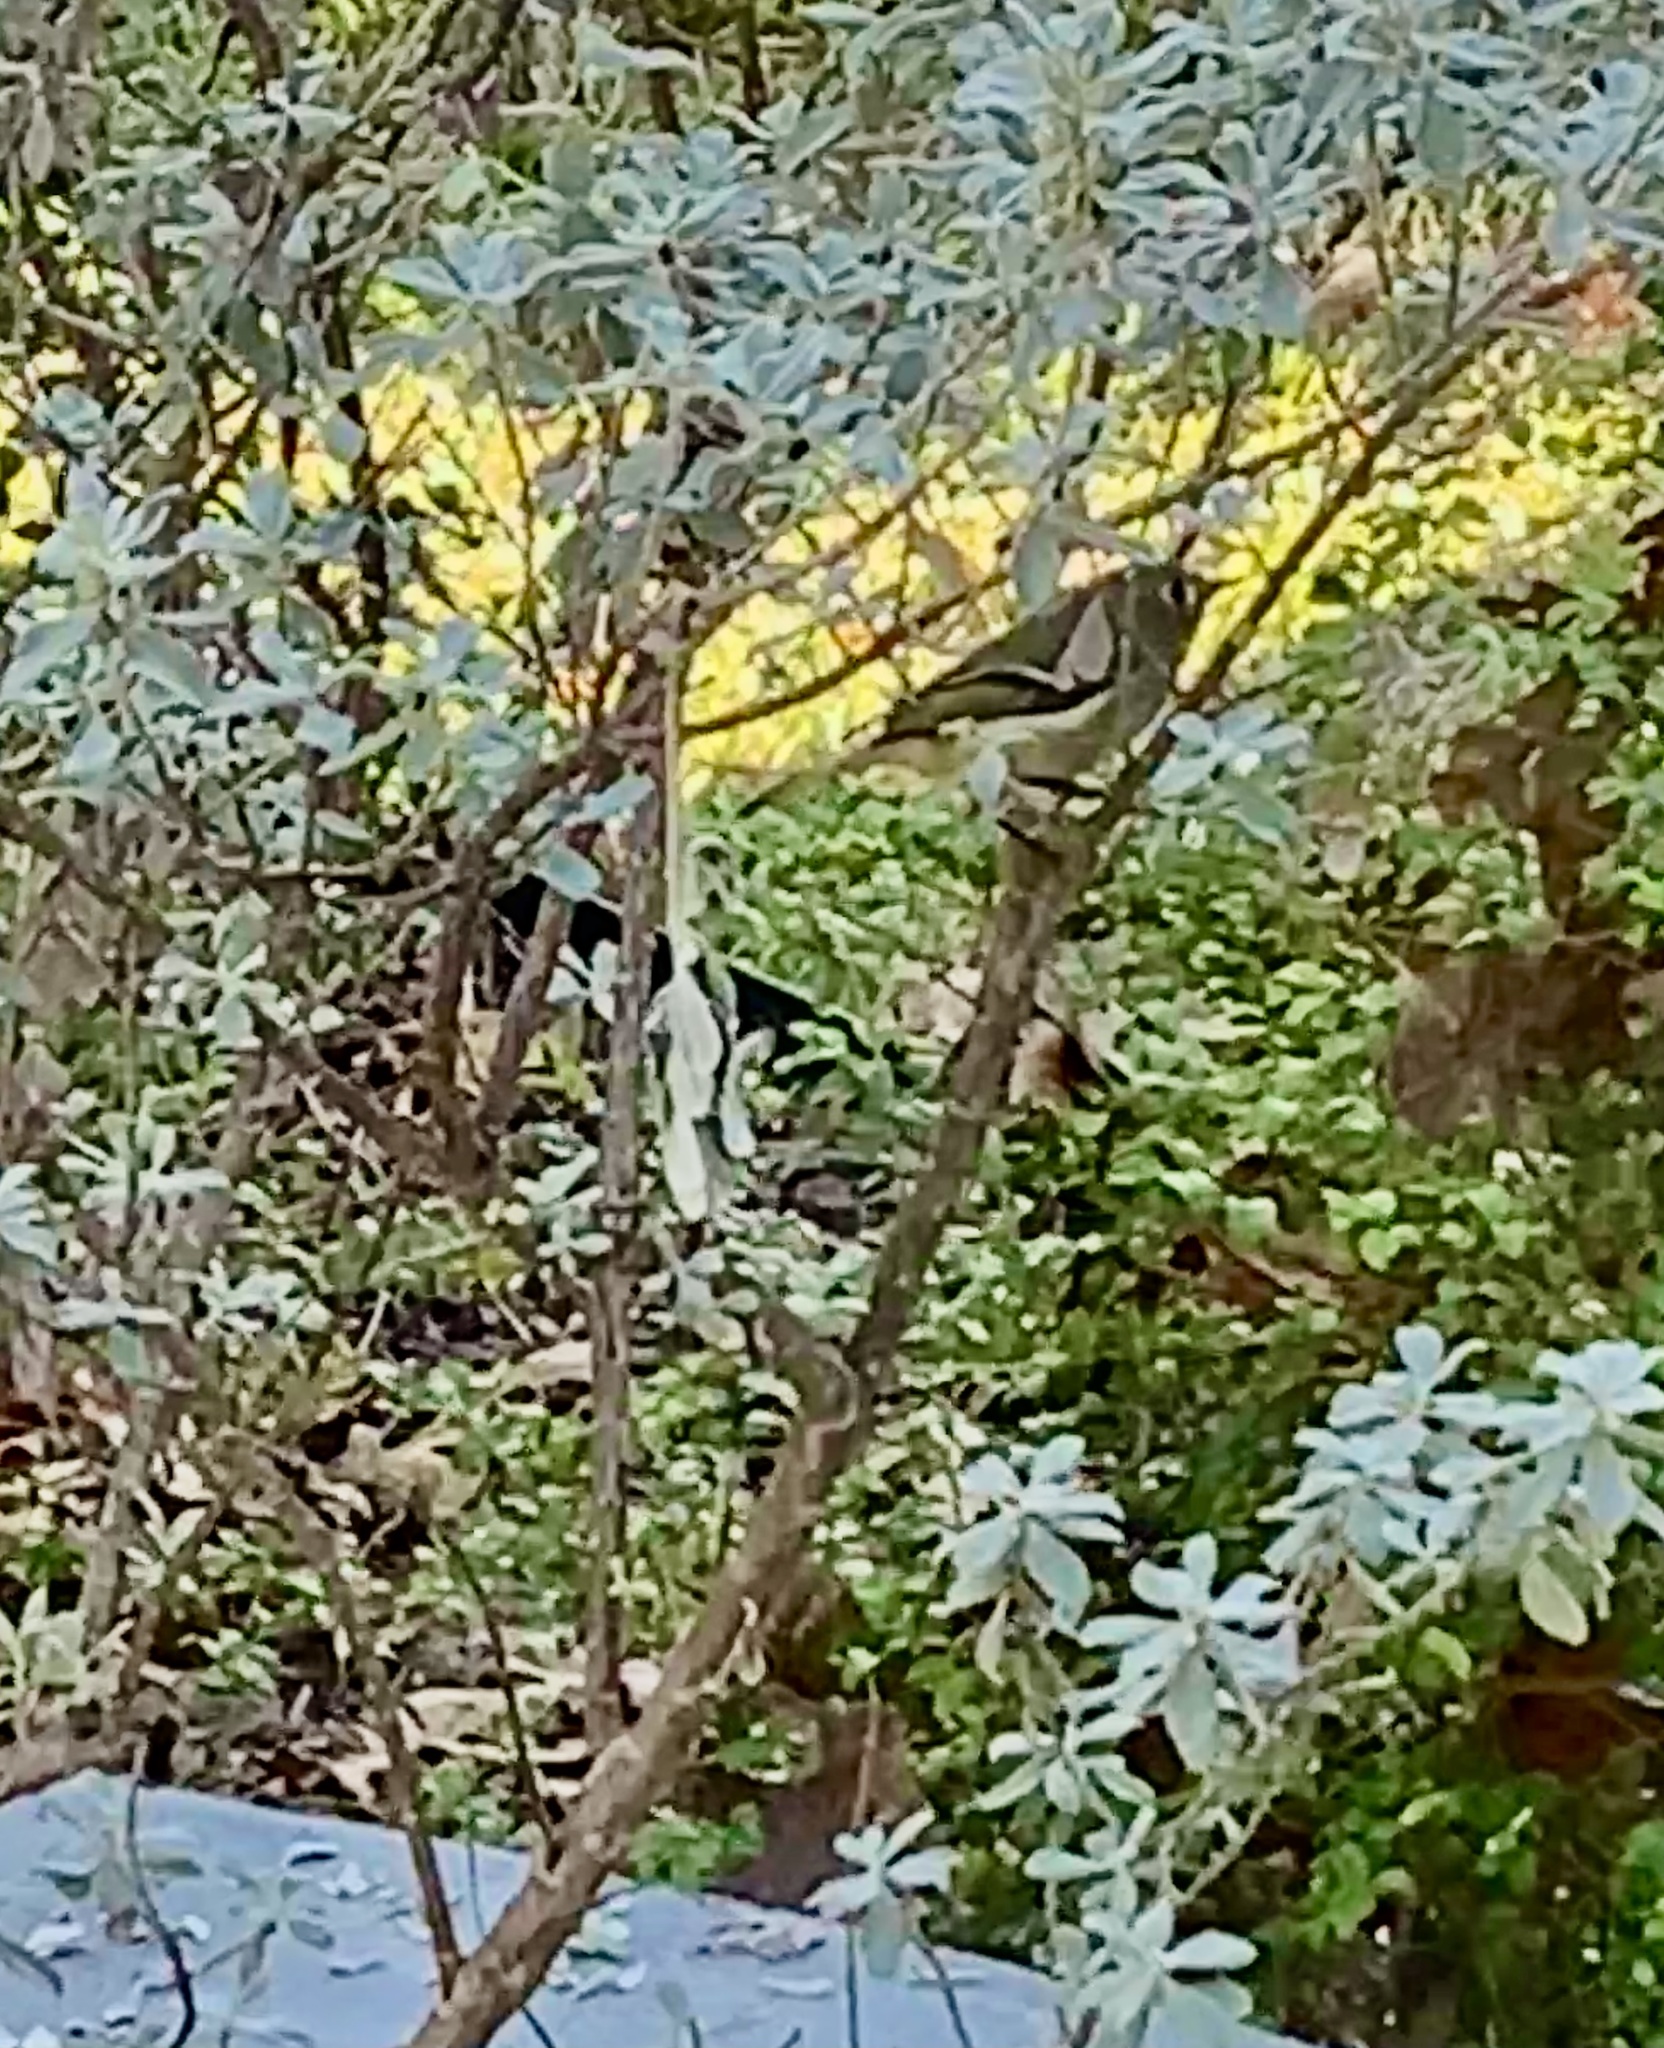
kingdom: Animalia
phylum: Chordata
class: Aves
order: Passeriformes
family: Regulidae
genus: Regulus
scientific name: Regulus calendula
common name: Ruby-crowned kinglet
